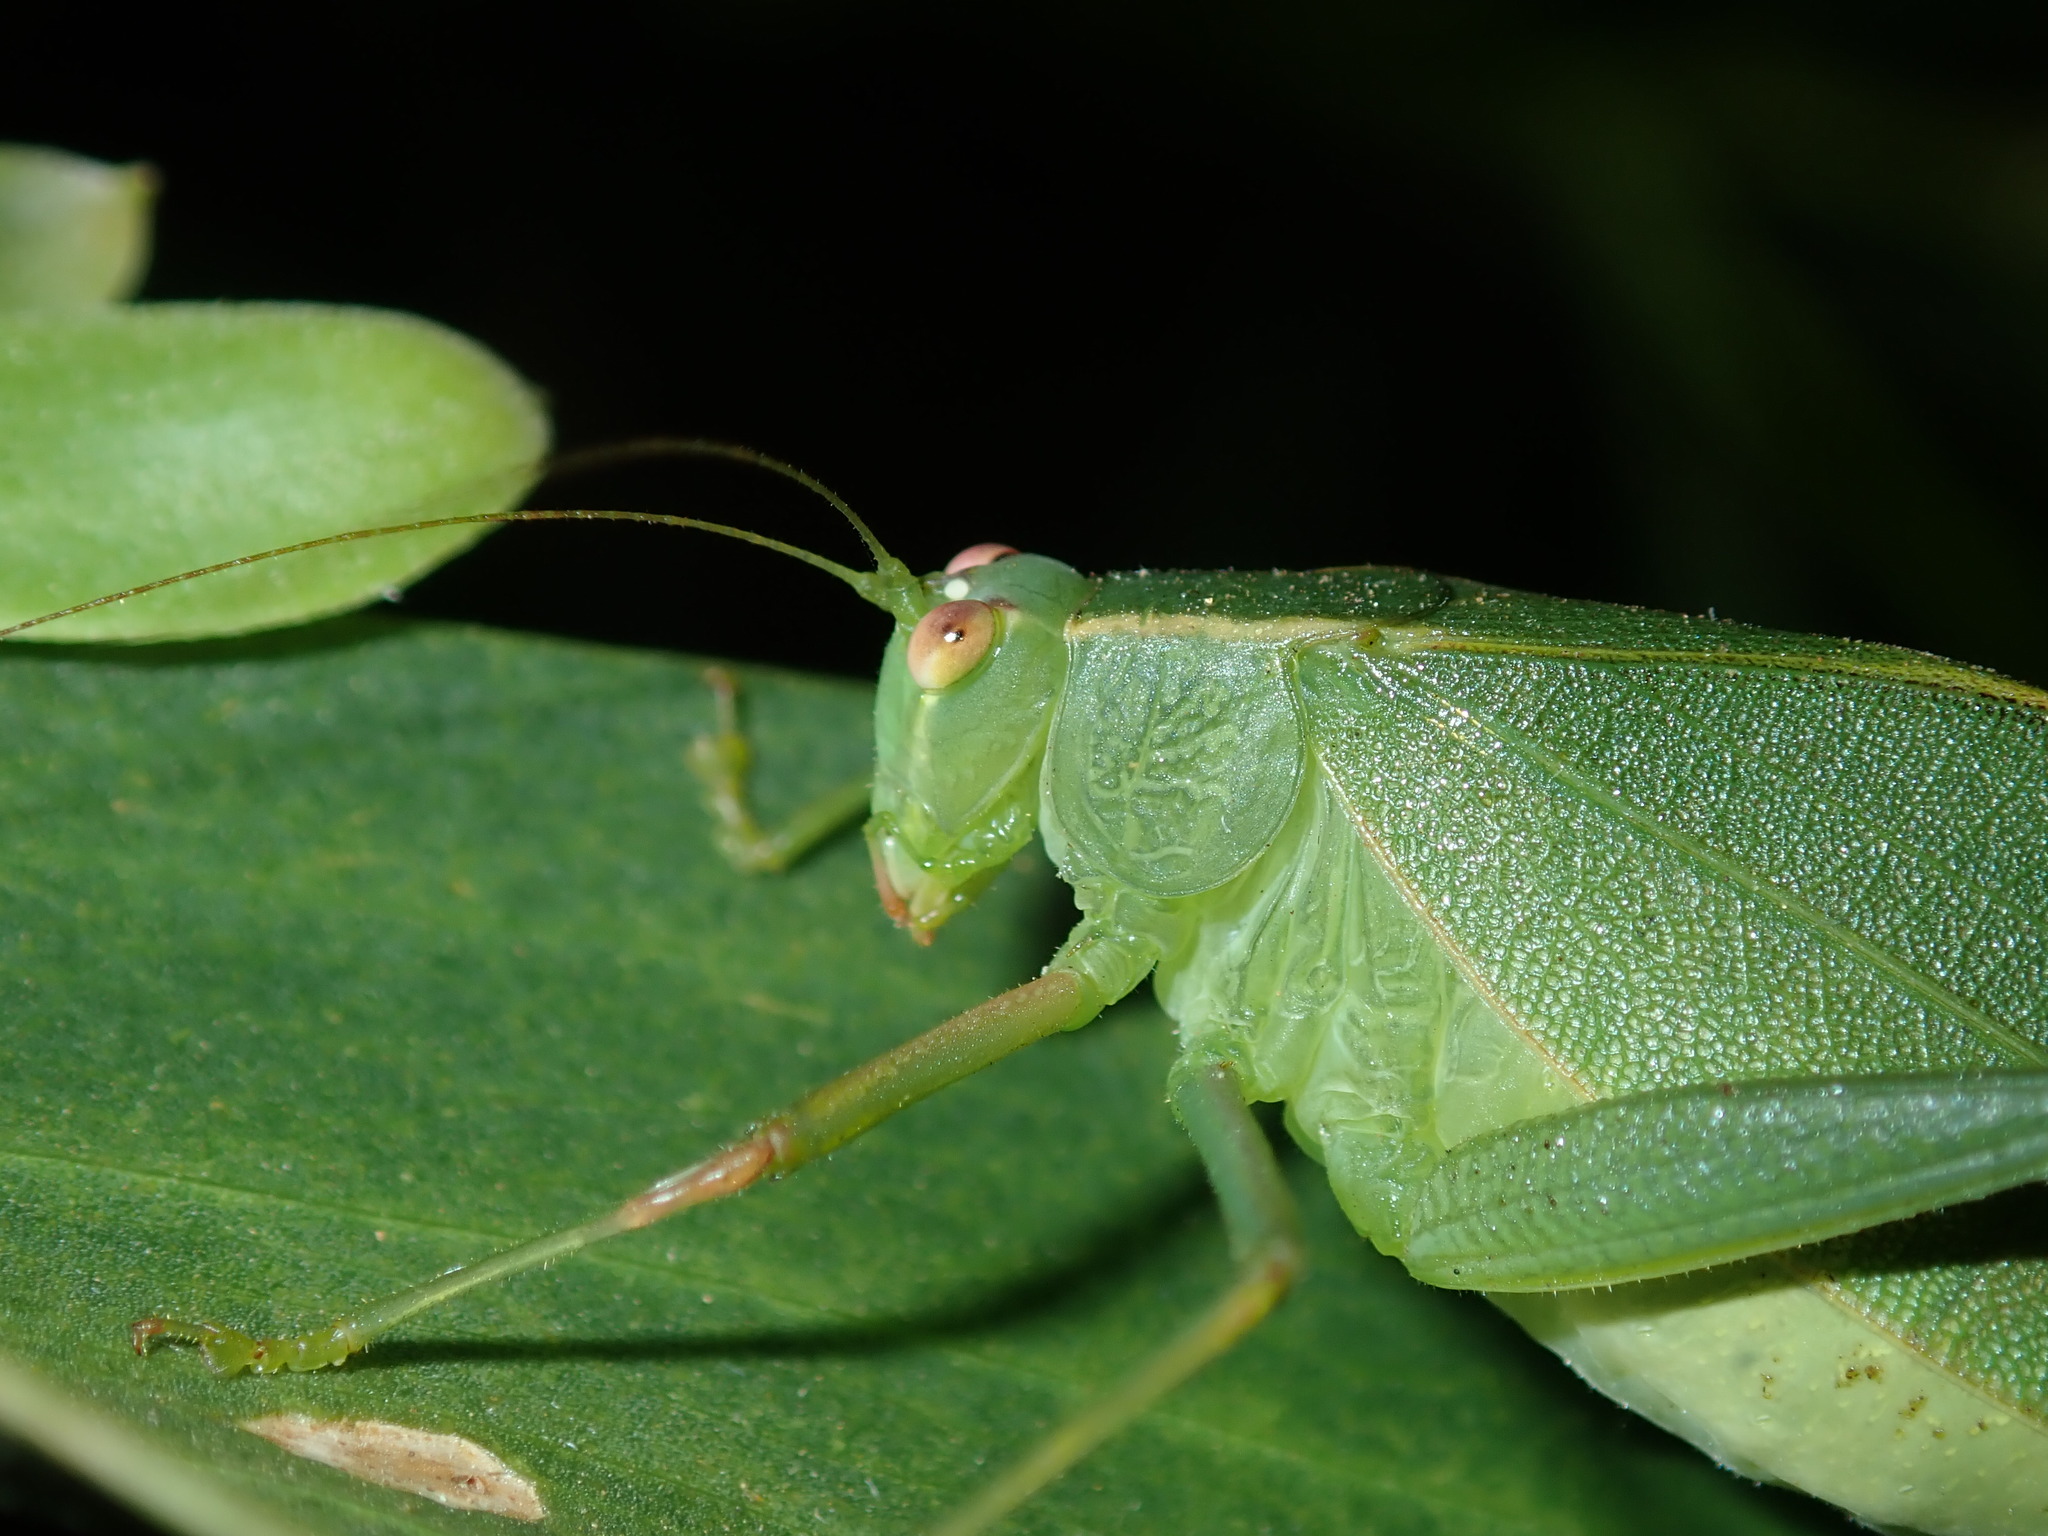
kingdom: Animalia
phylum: Arthropoda
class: Insecta
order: Orthoptera
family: Tettigoniidae
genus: Caedicia
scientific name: Caedicia simplex
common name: Common garden katydid
